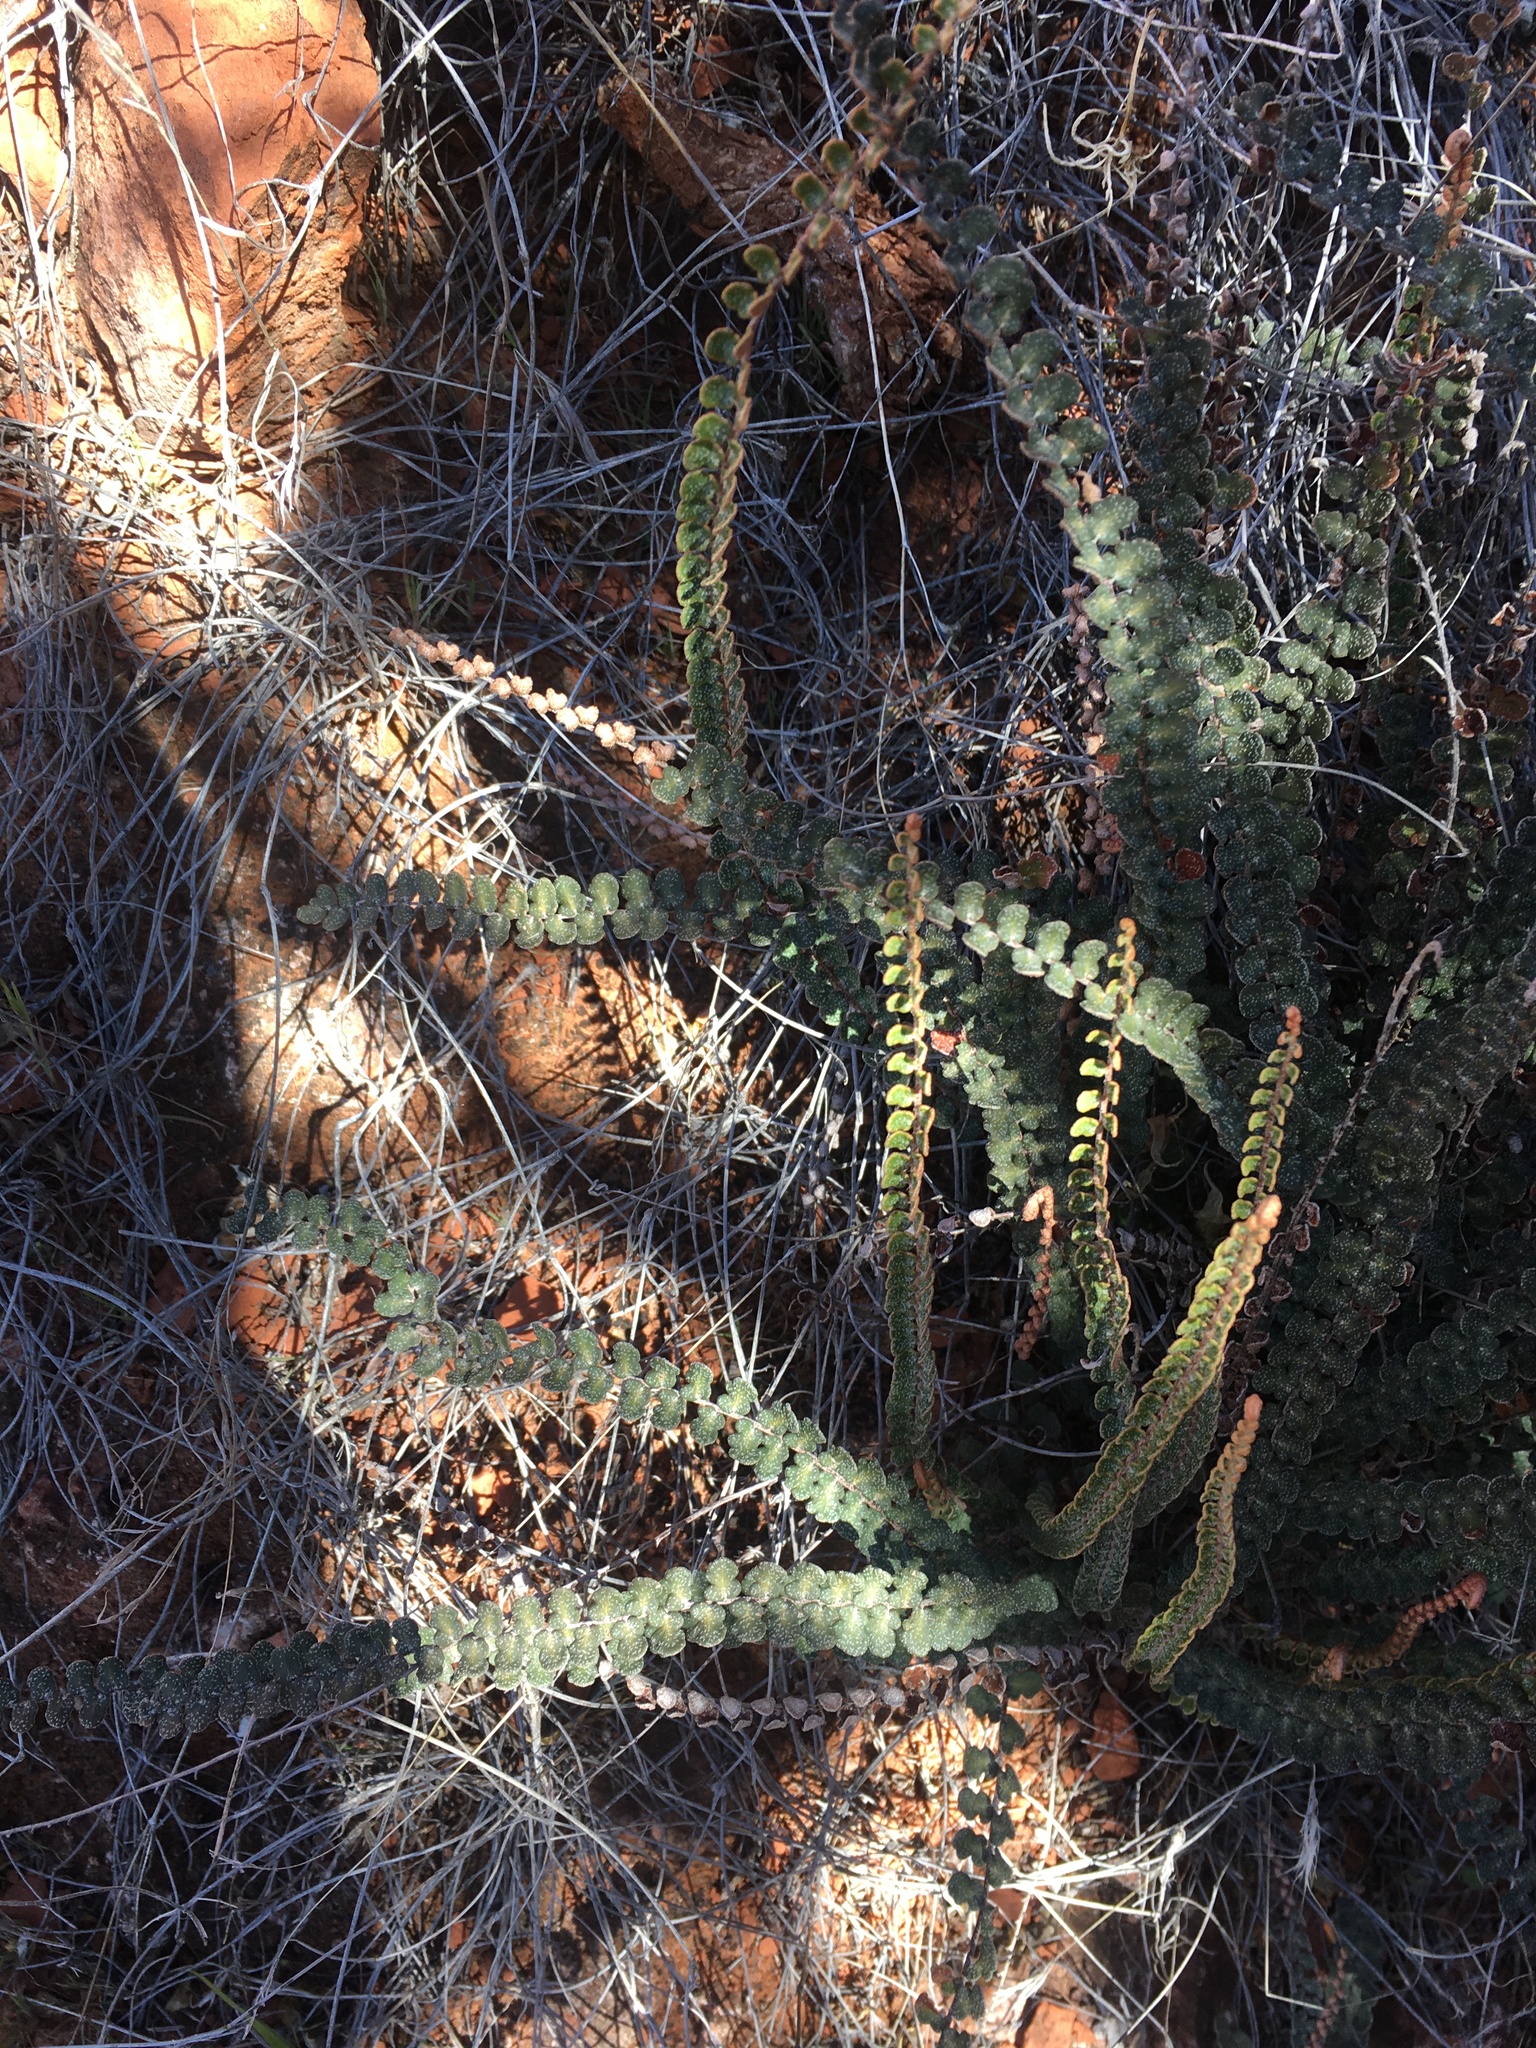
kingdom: Plantae
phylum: Tracheophyta
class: Polypodiopsida
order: Polypodiales
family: Pteridaceae
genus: Astrolepis
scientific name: Astrolepis cochisensis
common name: Scaly cloak fern
